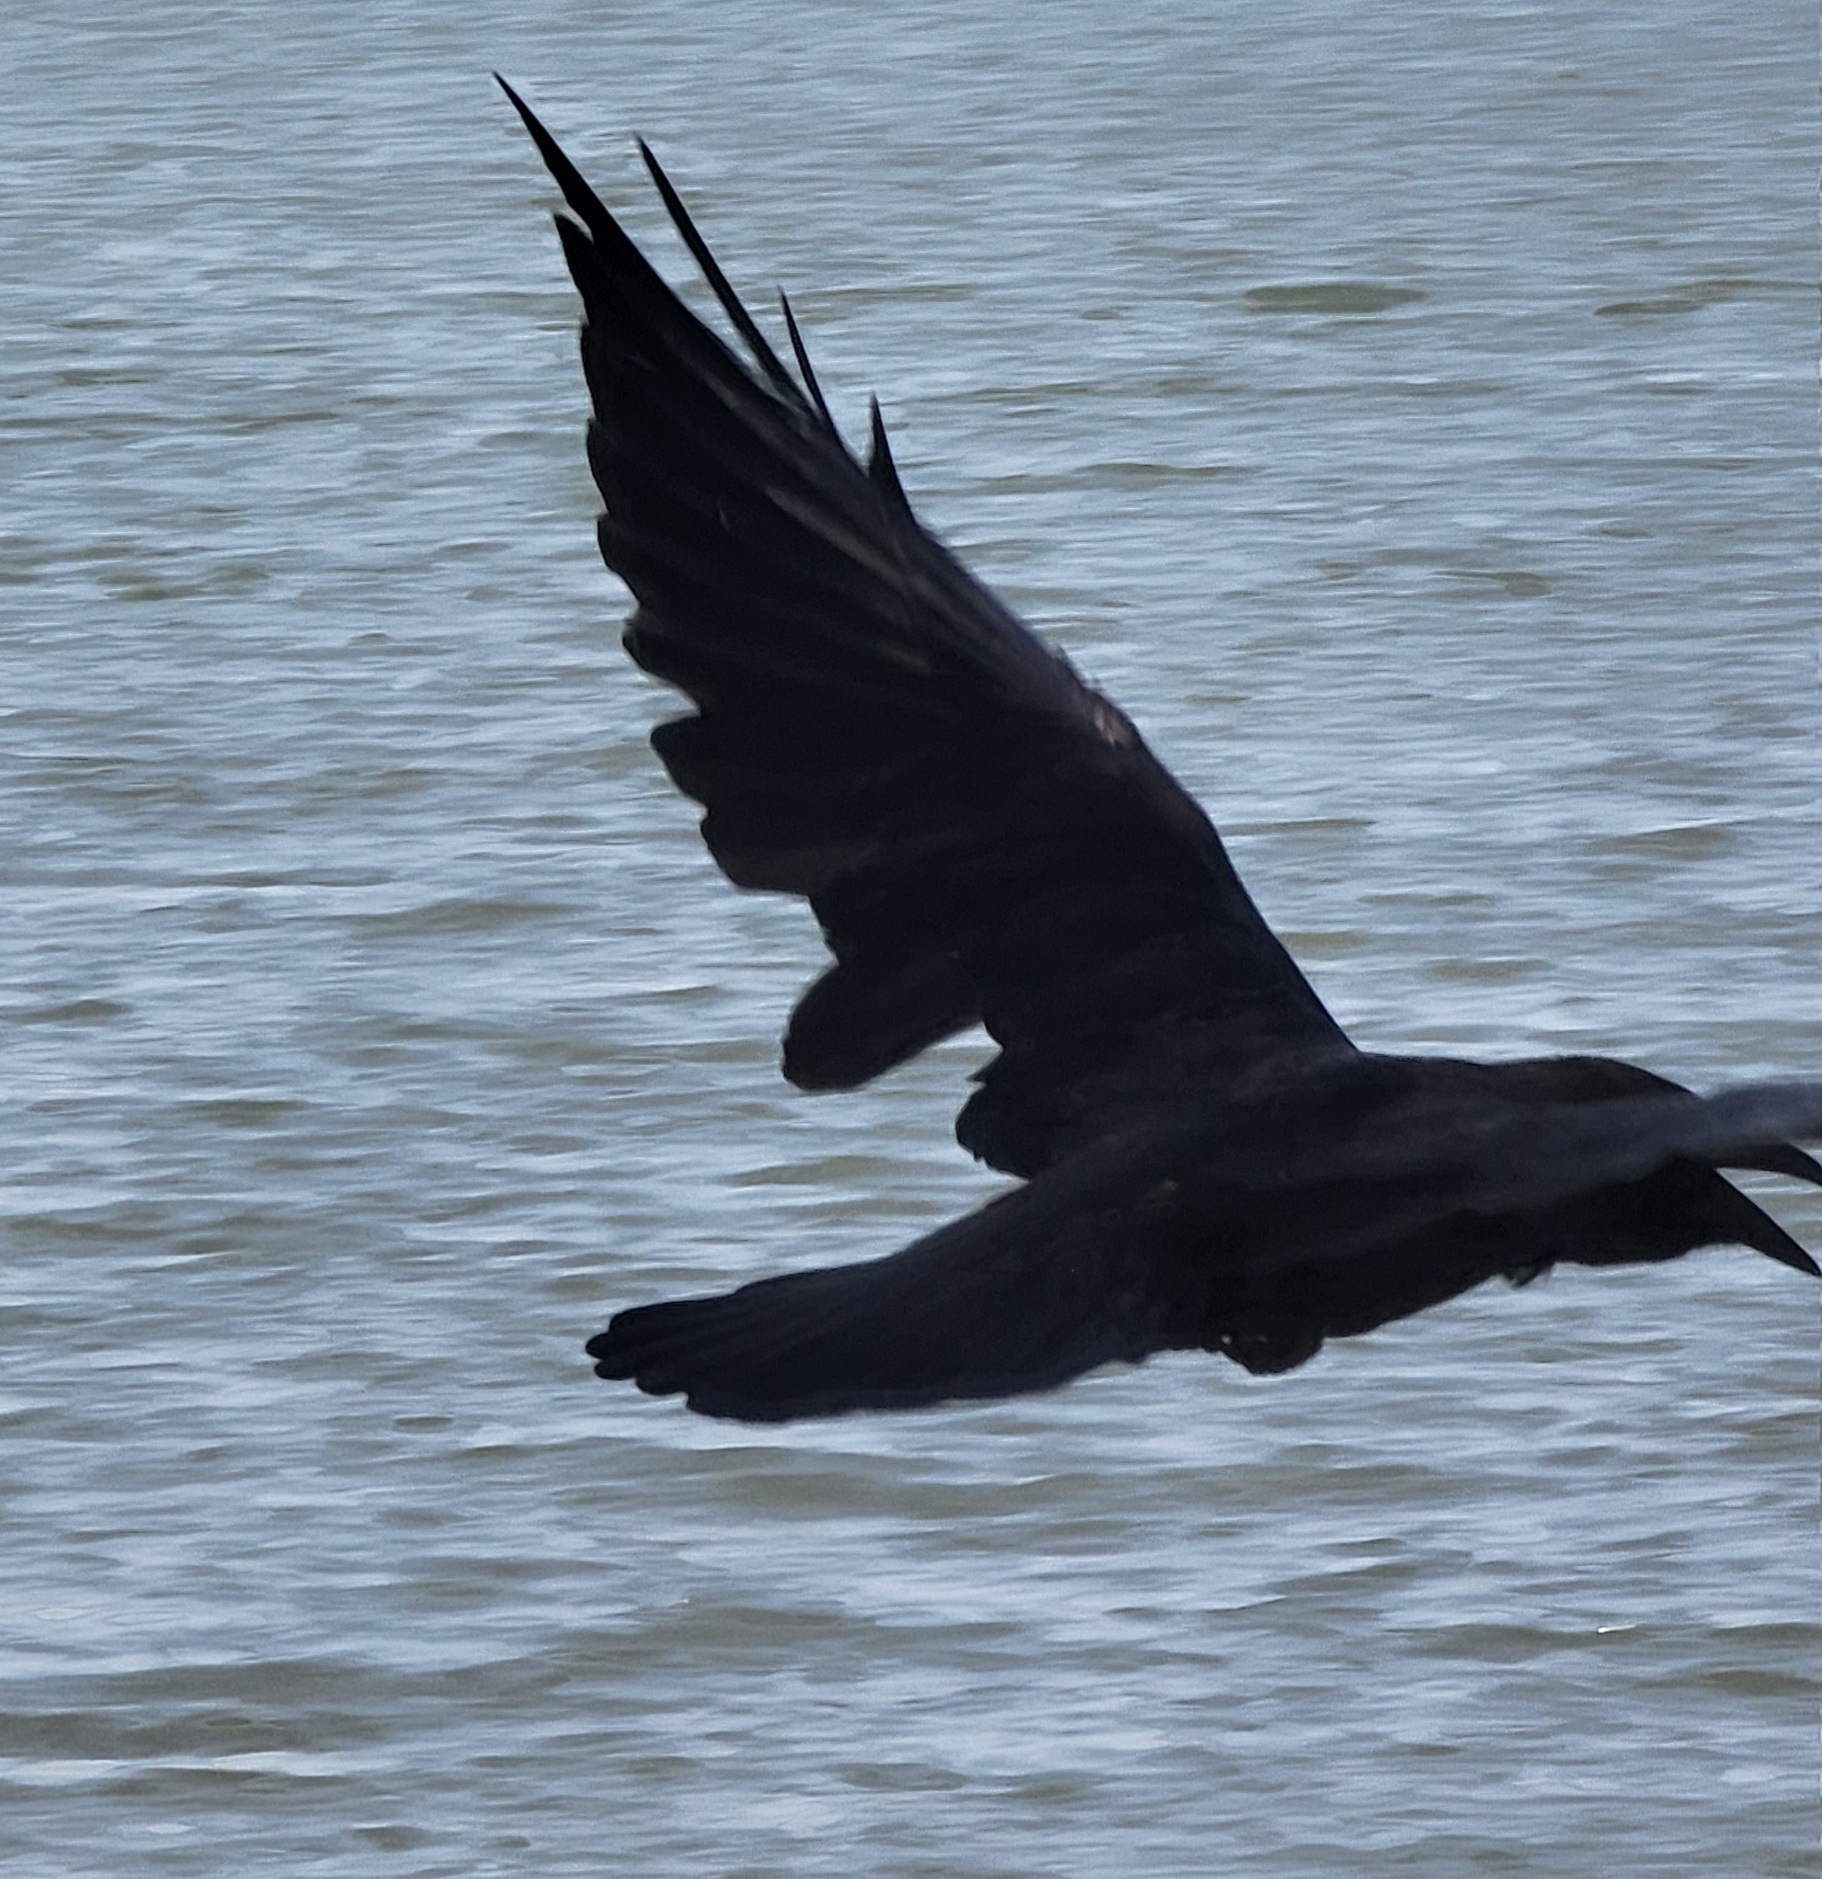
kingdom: Animalia
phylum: Chordata
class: Aves
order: Passeriformes
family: Corvidae
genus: Corvus
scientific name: Corvus corax
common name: Common raven
